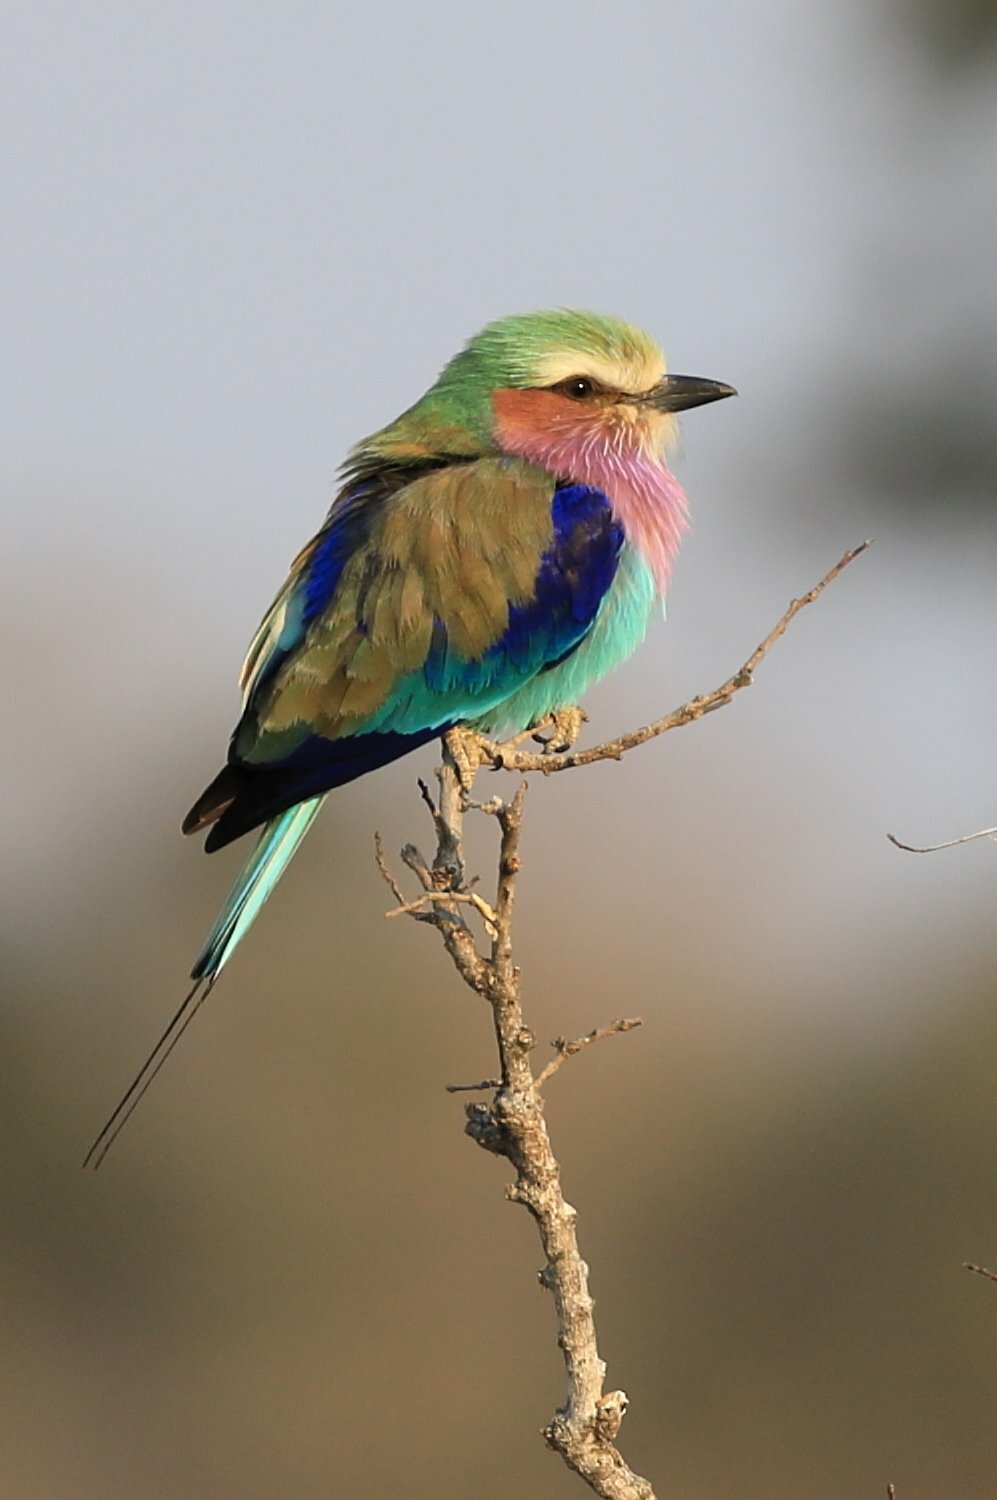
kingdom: Animalia
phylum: Chordata
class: Aves
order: Coraciiformes
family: Coraciidae
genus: Coracias
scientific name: Coracias caudatus
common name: Lilac-breasted roller
